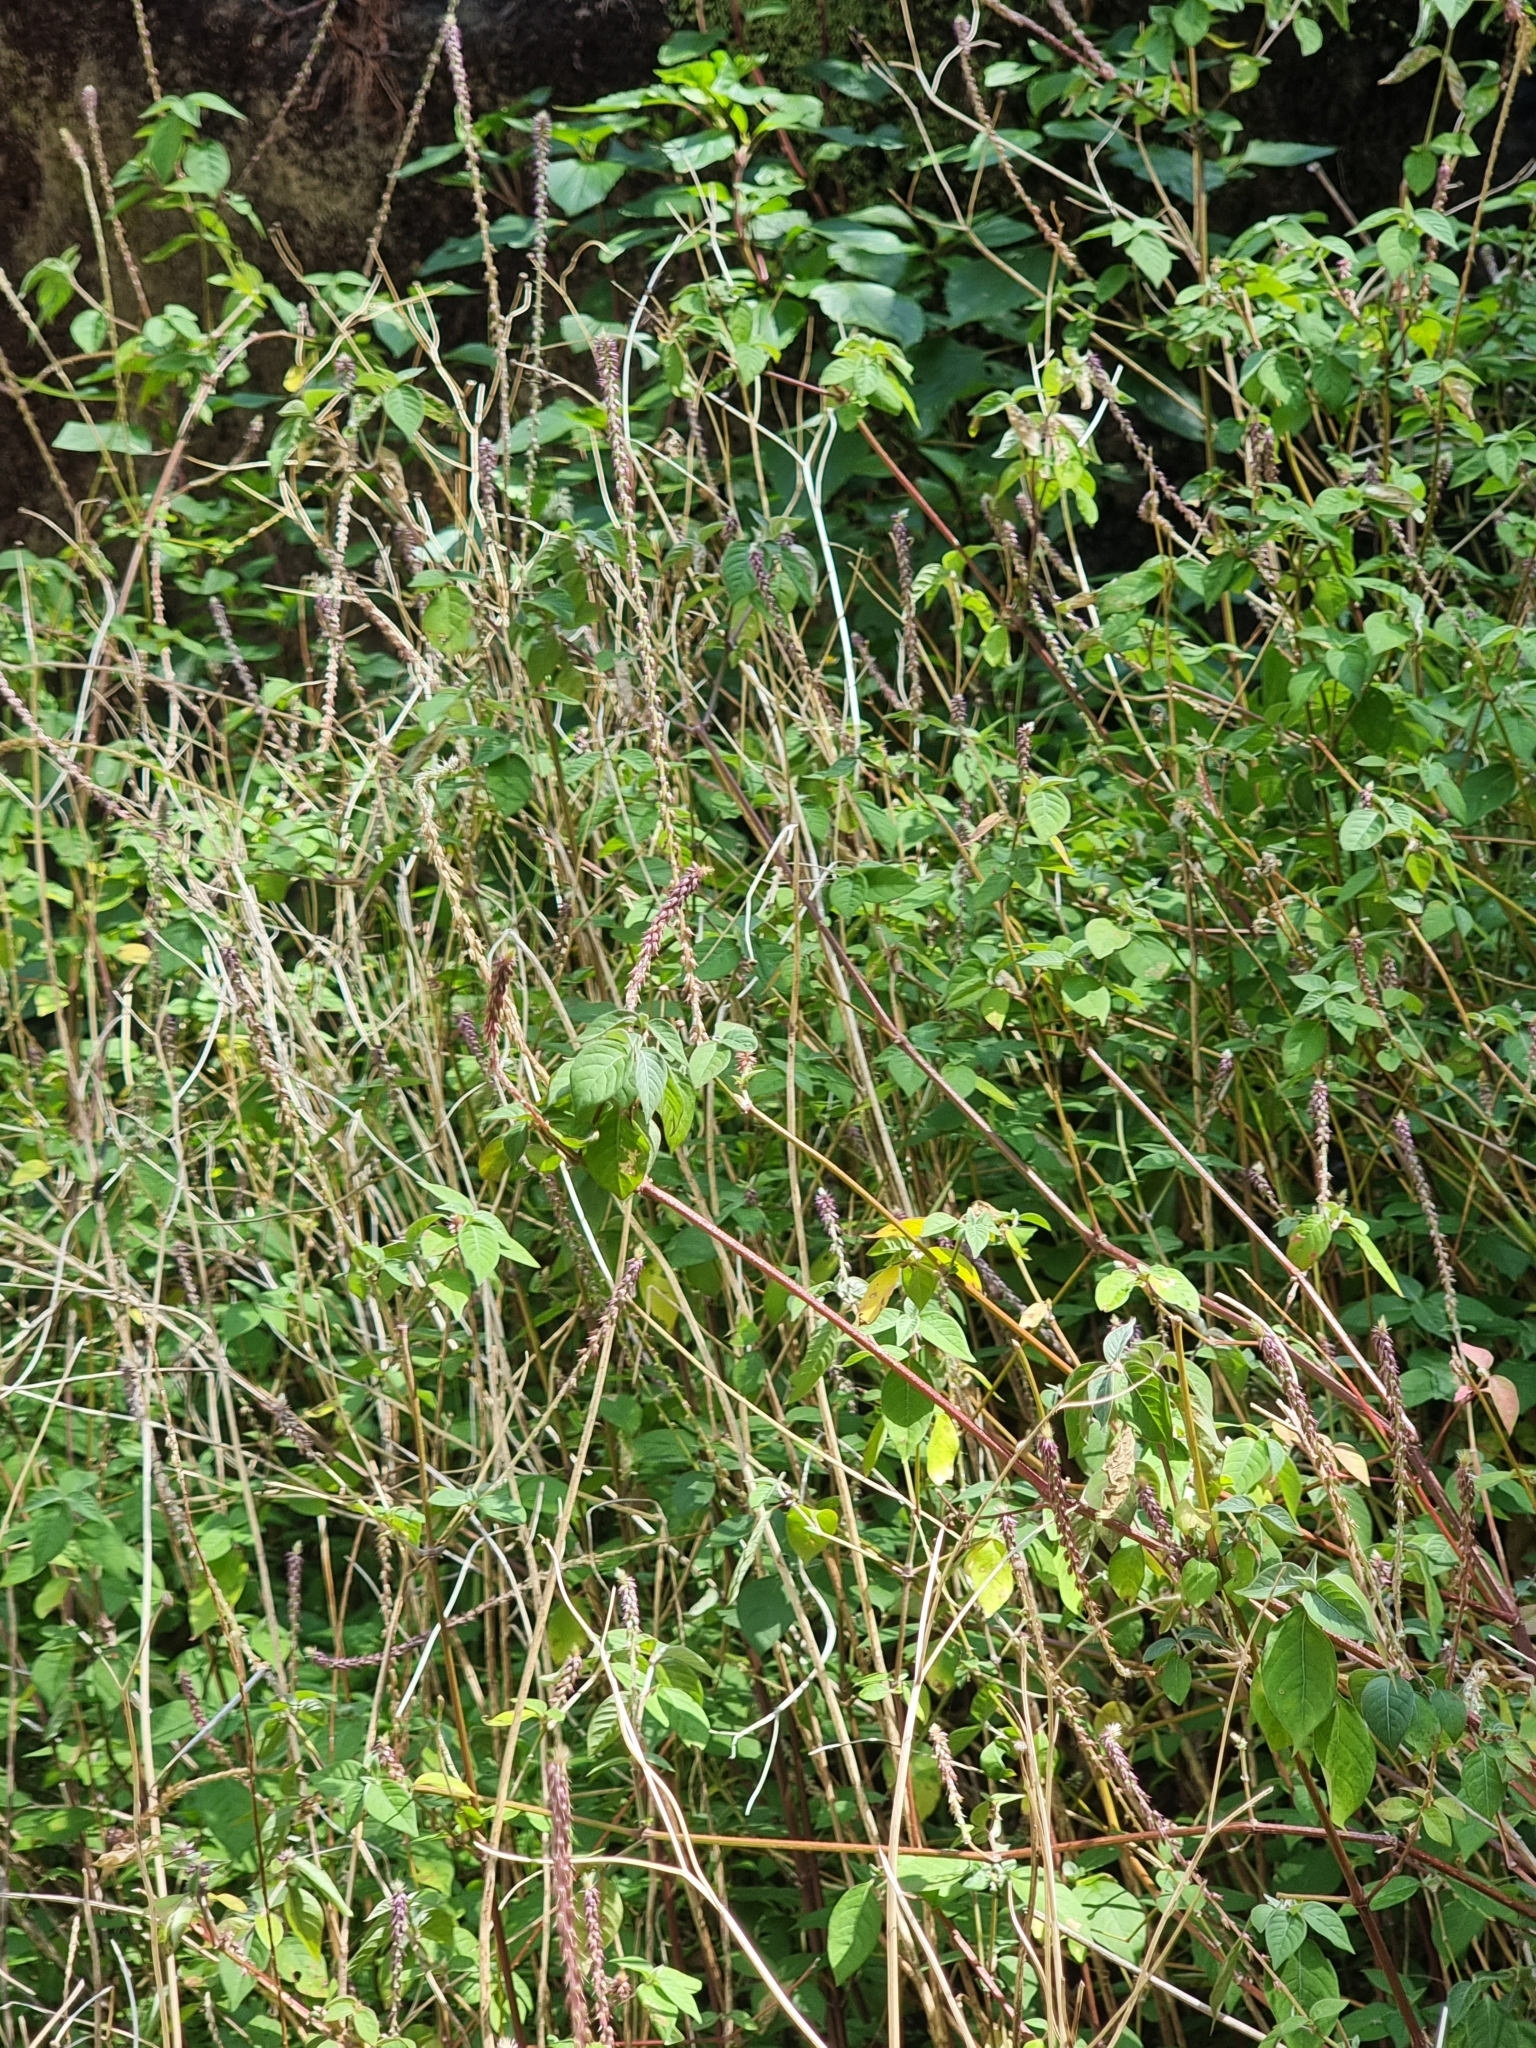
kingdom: Plantae
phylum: Tracheophyta
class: Magnoliopsida
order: Caryophyllales
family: Amaranthaceae
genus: Achyranthes
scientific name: Achyranthes aspera
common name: Devil's horsewhip
